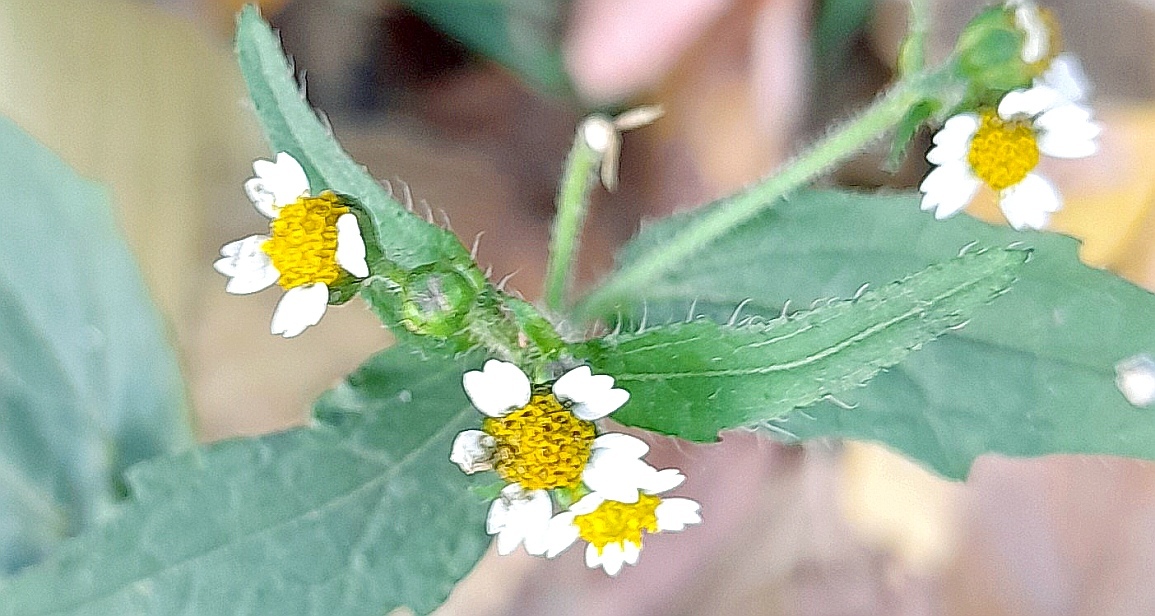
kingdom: Plantae
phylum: Tracheophyta
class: Magnoliopsida
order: Asterales
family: Asteraceae
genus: Galinsoga
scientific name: Galinsoga quadriradiata
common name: Shaggy soldier
